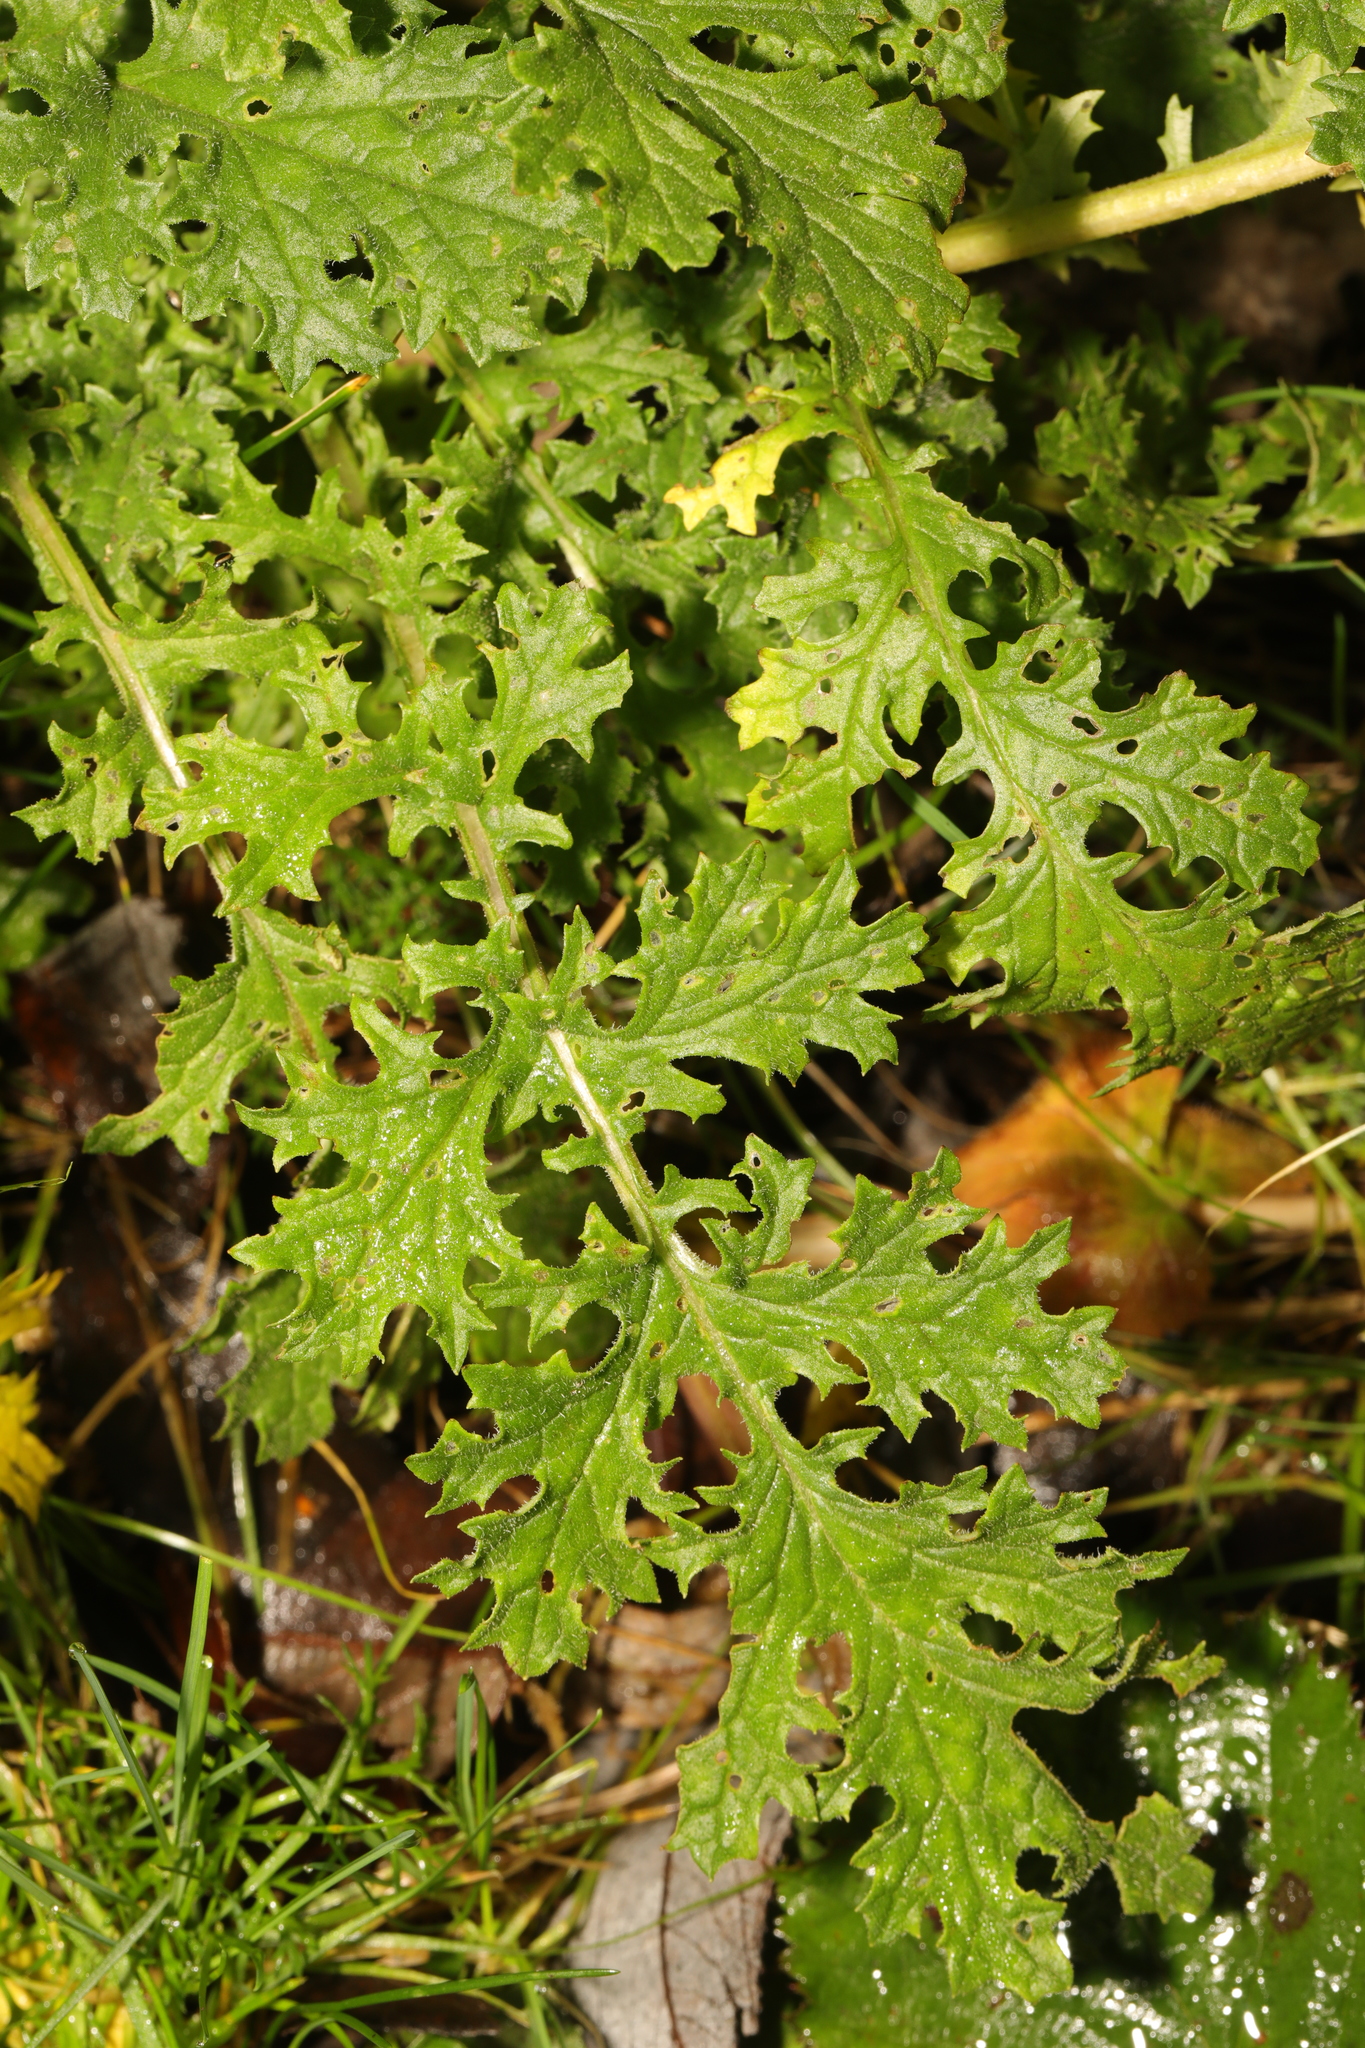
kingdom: Plantae
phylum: Tracheophyta
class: Magnoliopsida
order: Asterales
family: Asteraceae
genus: Jacobaea
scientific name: Jacobaea vulgaris
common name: Stinking willie
